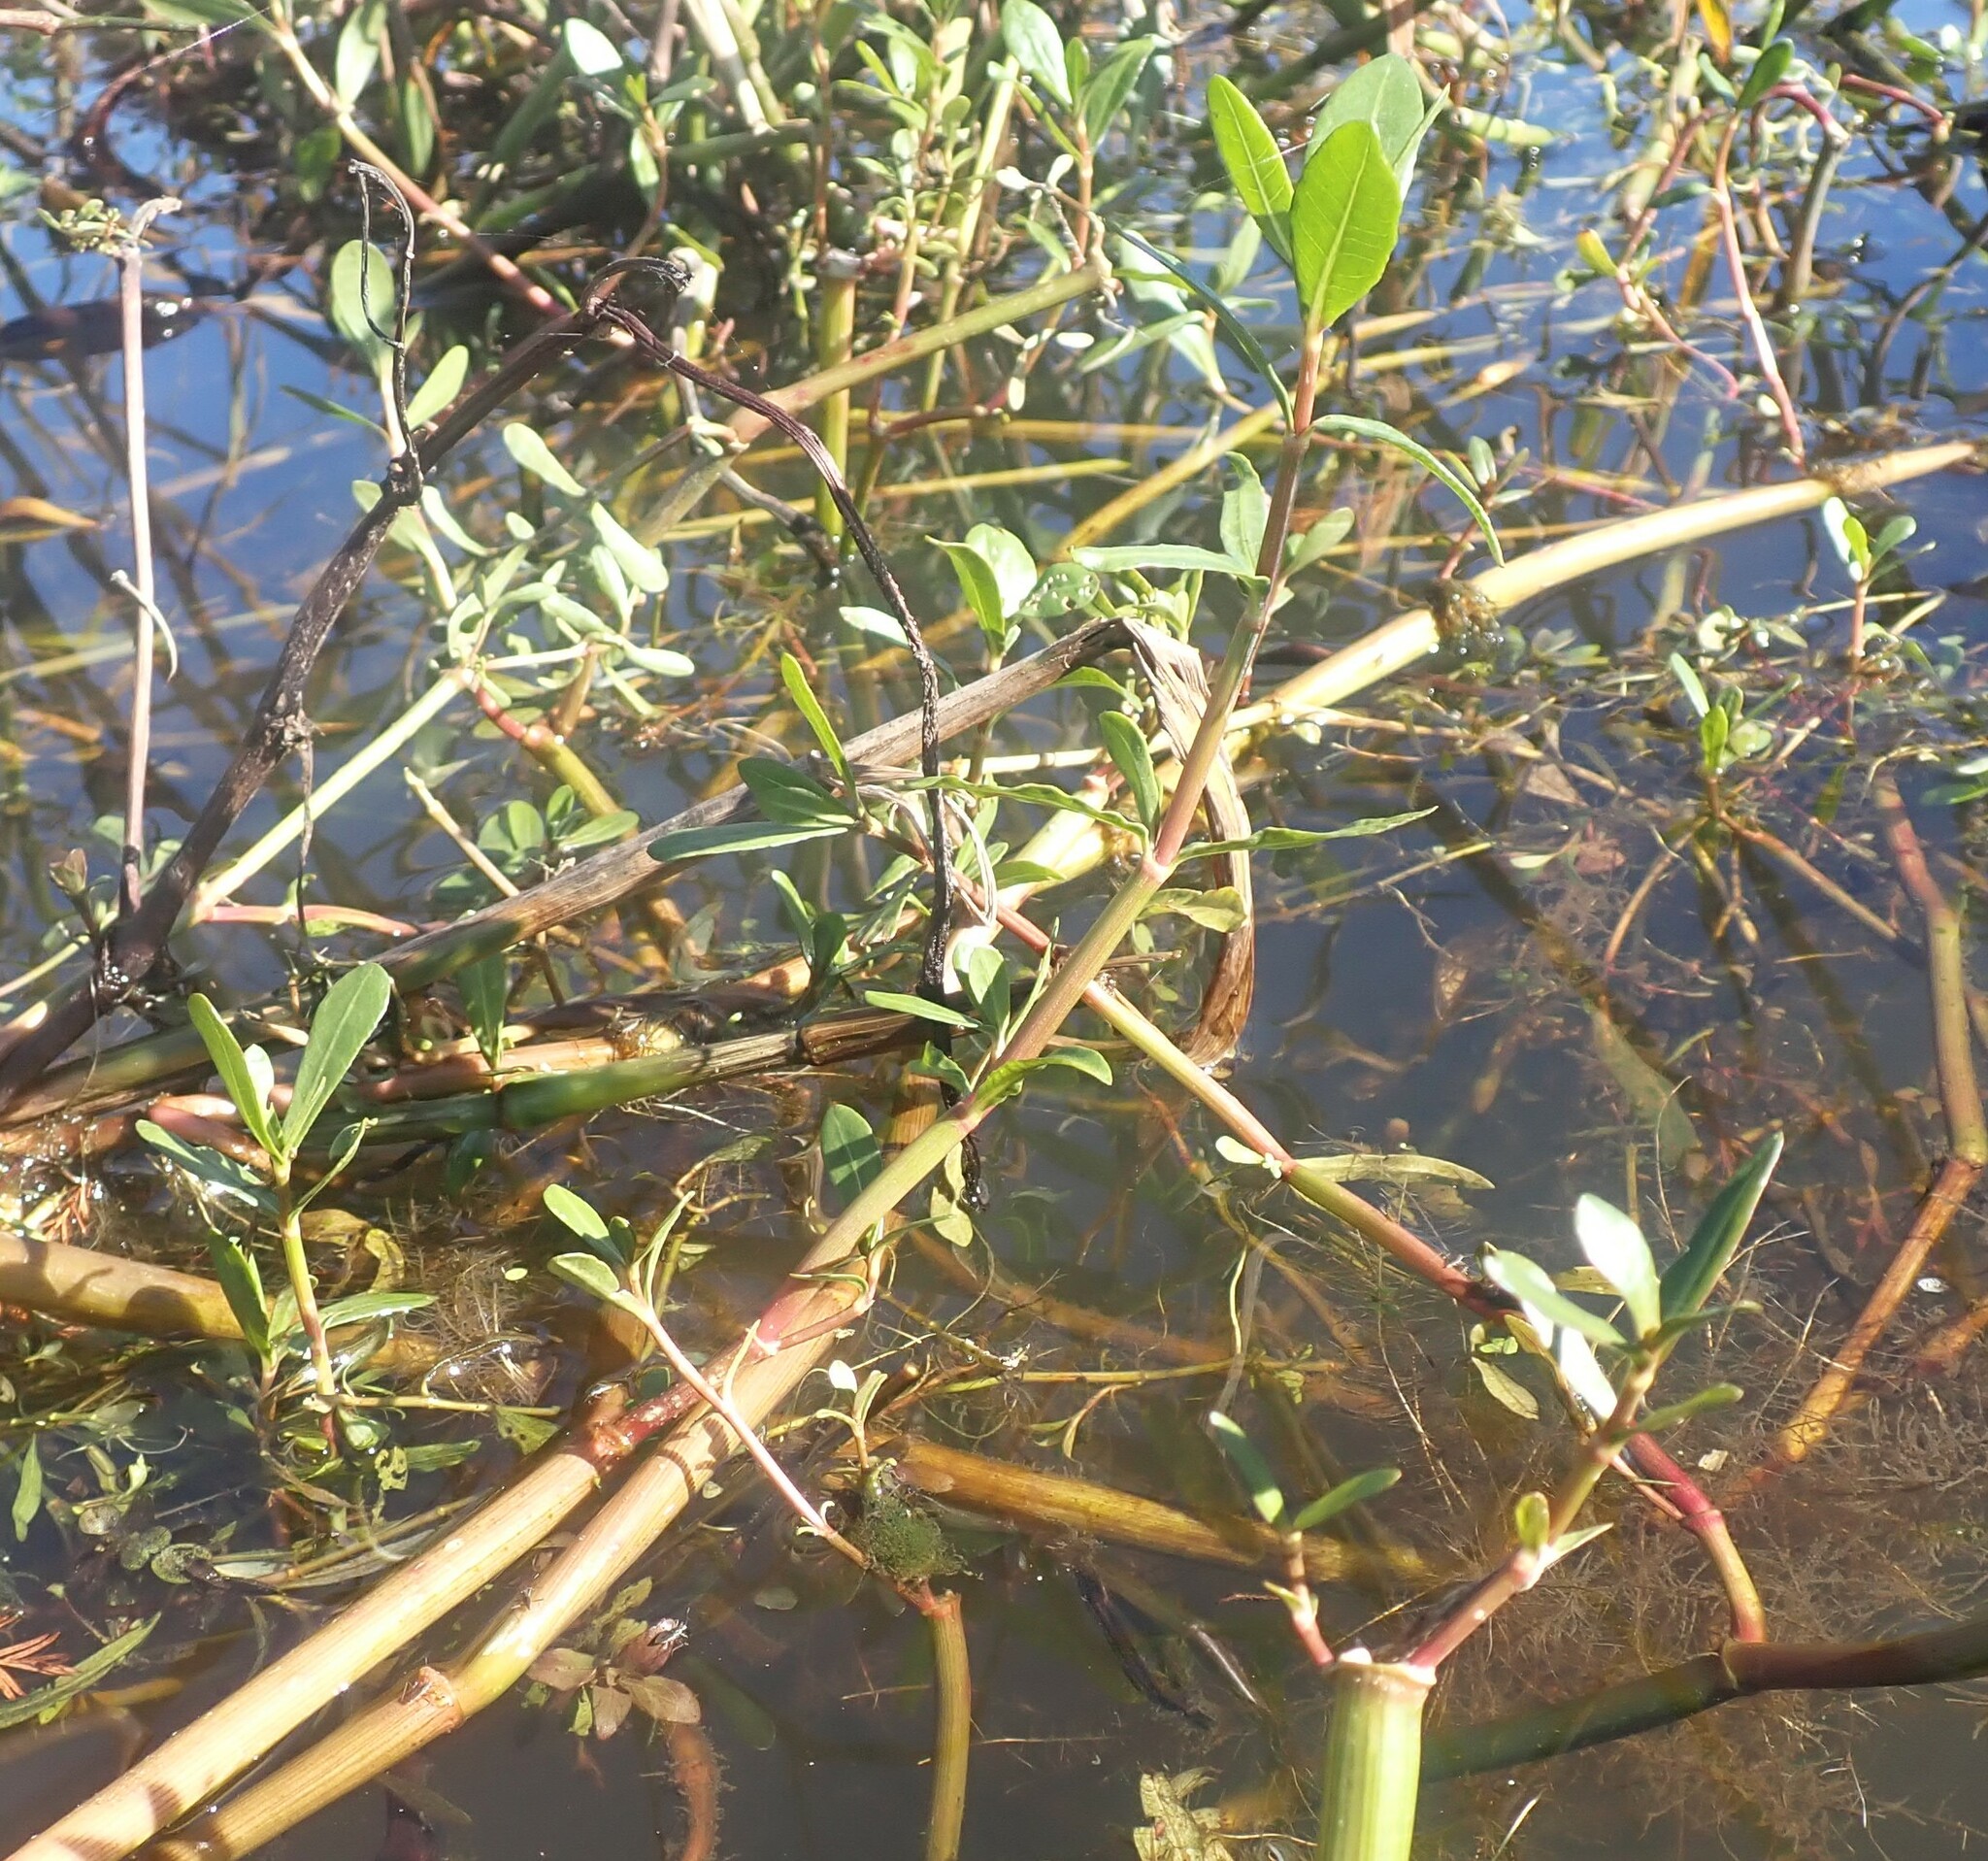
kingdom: Plantae
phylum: Tracheophyta
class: Magnoliopsida
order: Caryophyllales
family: Amaranthaceae
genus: Alternanthera
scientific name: Alternanthera philoxeroides
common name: Alligatorweed
